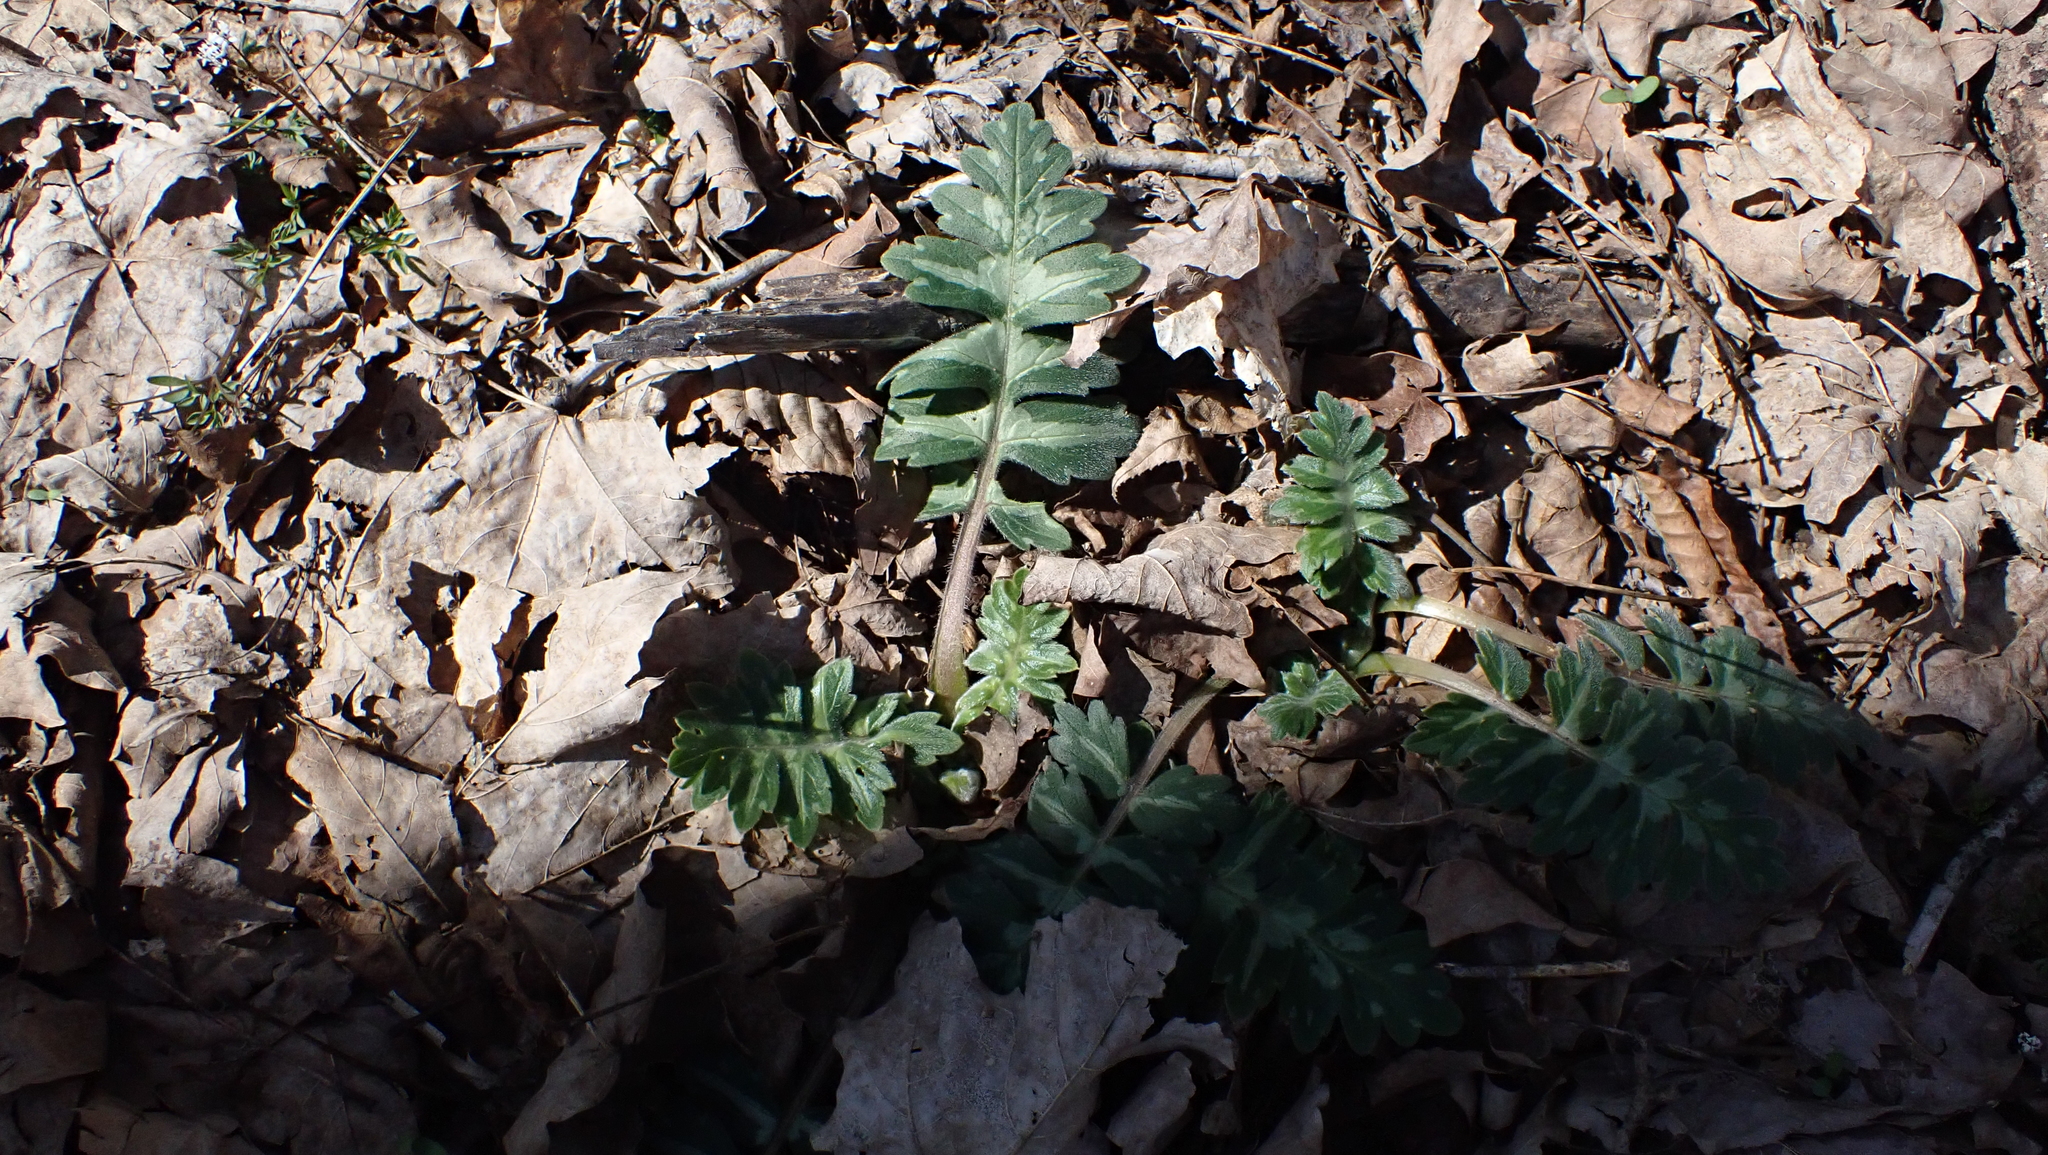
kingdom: Plantae
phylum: Tracheophyta
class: Magnoliopsida
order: Boraginales
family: Hydrophyllaceae
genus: Hydrophyllum
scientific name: Hydrophyllum macrophyllum
